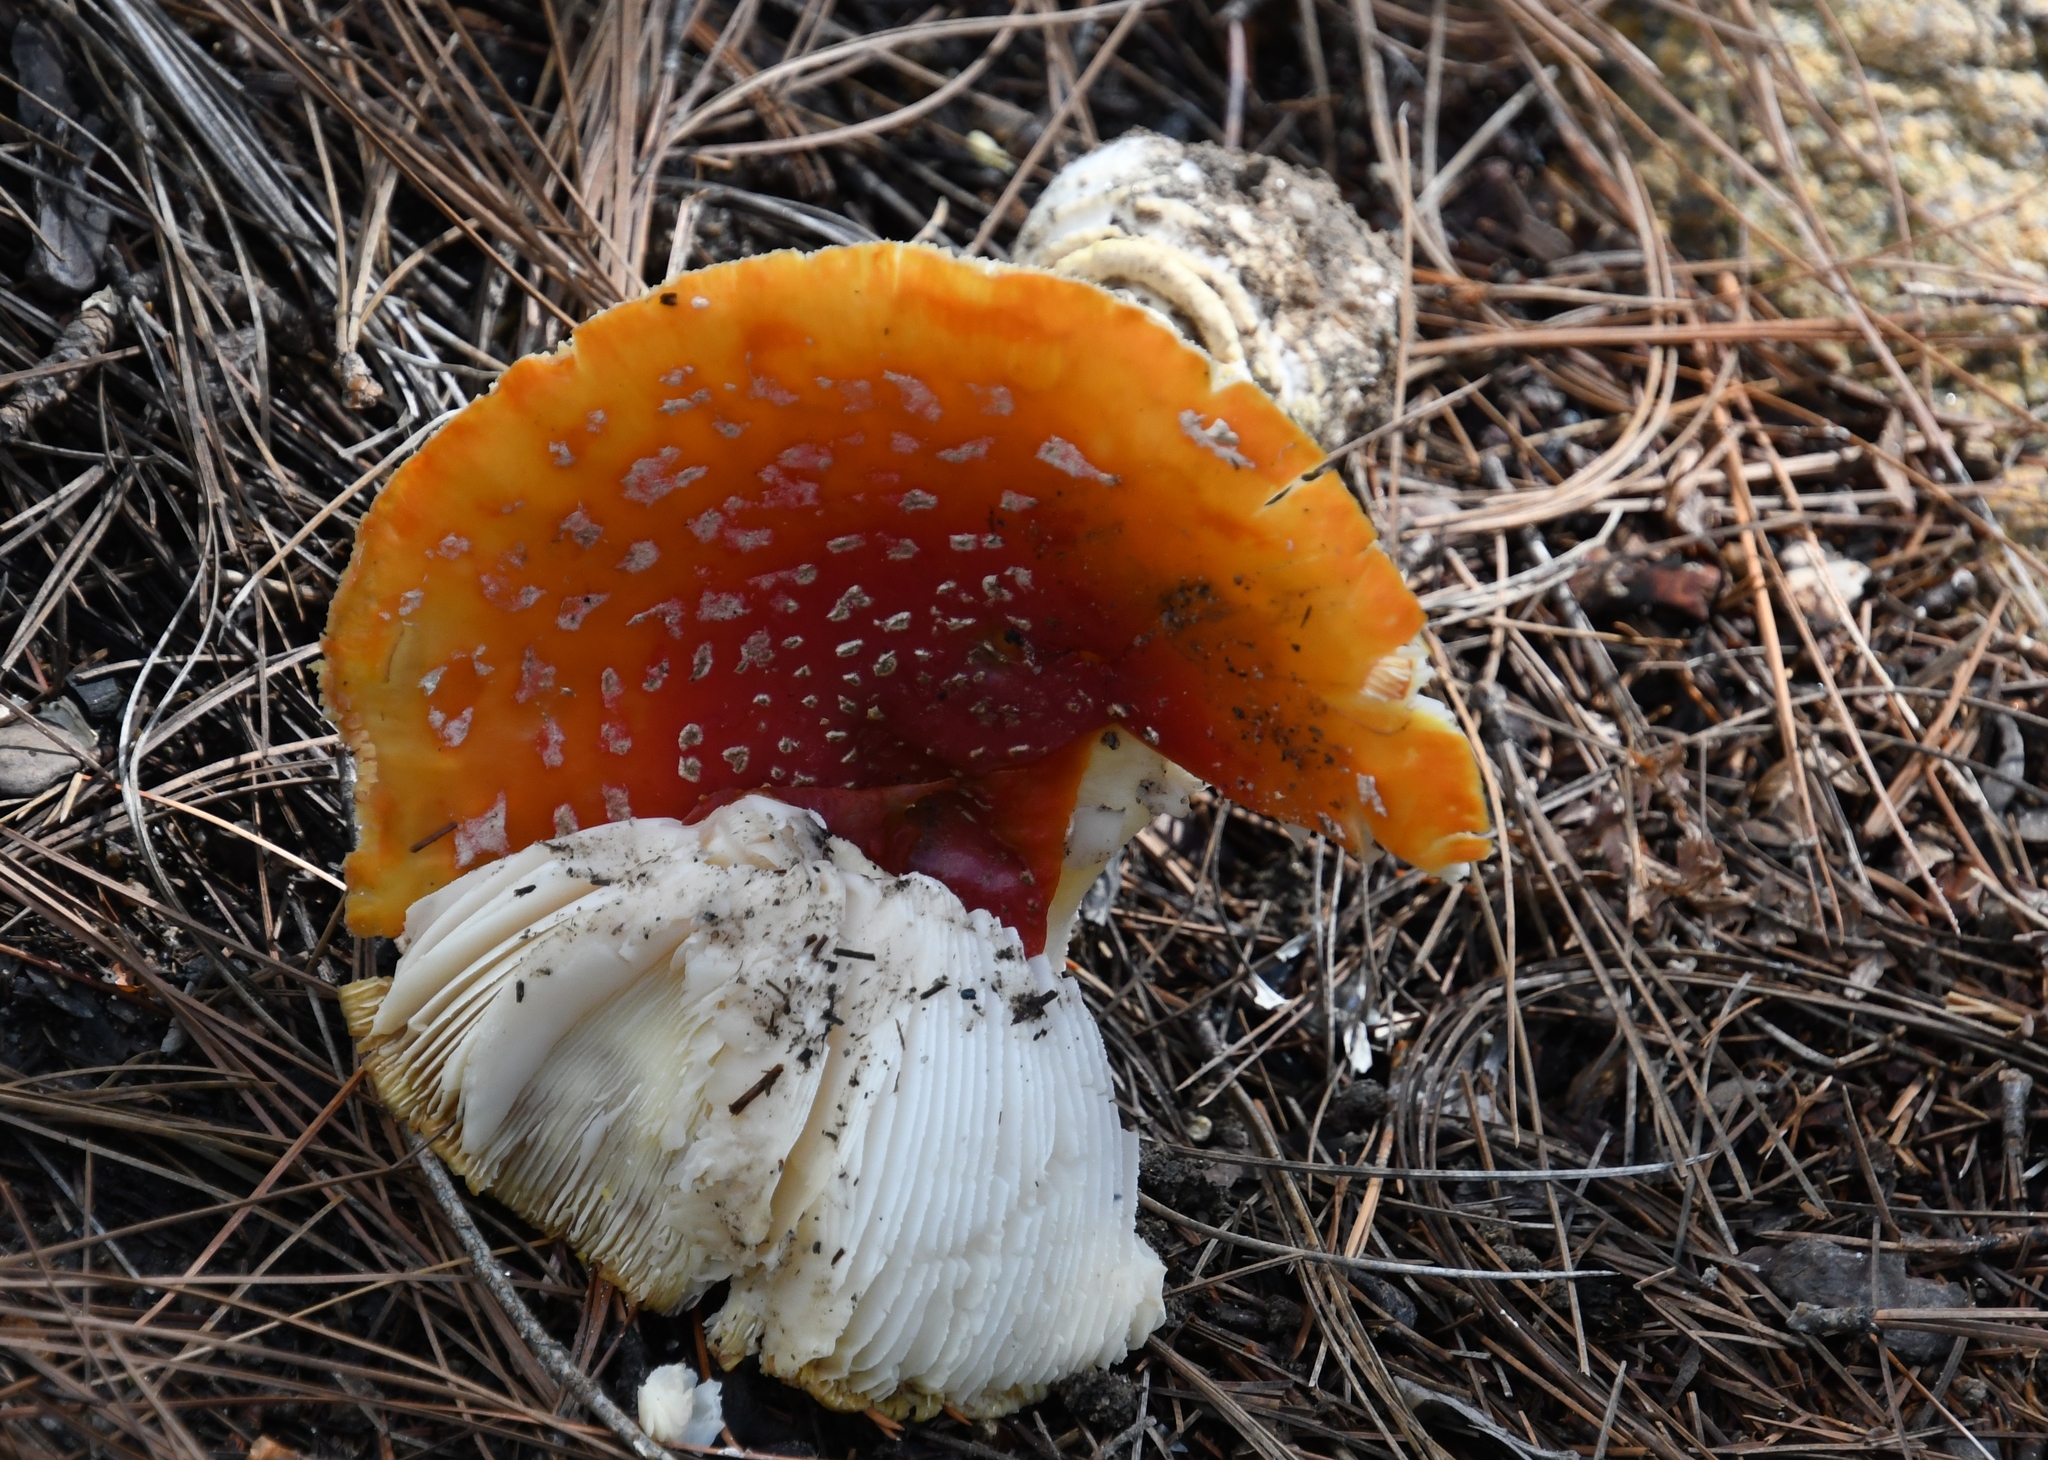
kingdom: Fungi
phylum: Basidiomycota
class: Agaricomycetes
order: Agaricales
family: Amanitaceae
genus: Amanita
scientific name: Amanita muscaria
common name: Fly agaric
